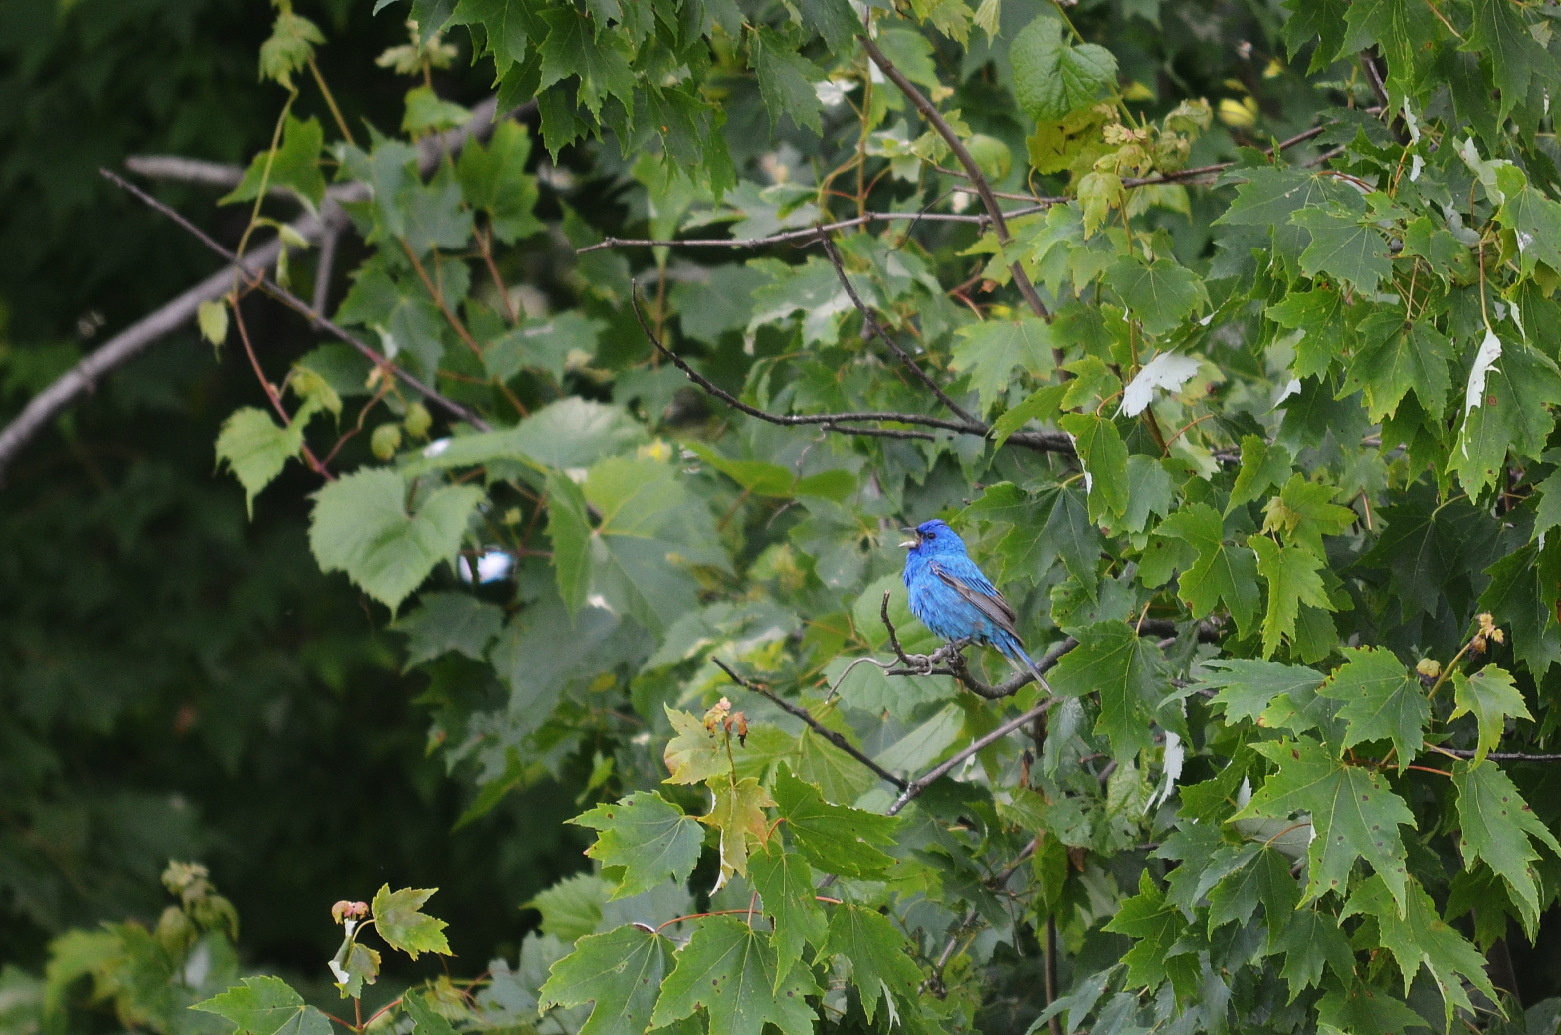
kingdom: Animalia
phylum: Chordata
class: Aves
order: Passeriformes
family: Cardinalidae
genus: Passerina
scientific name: Passerina cyanea
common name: Indigo bunting
